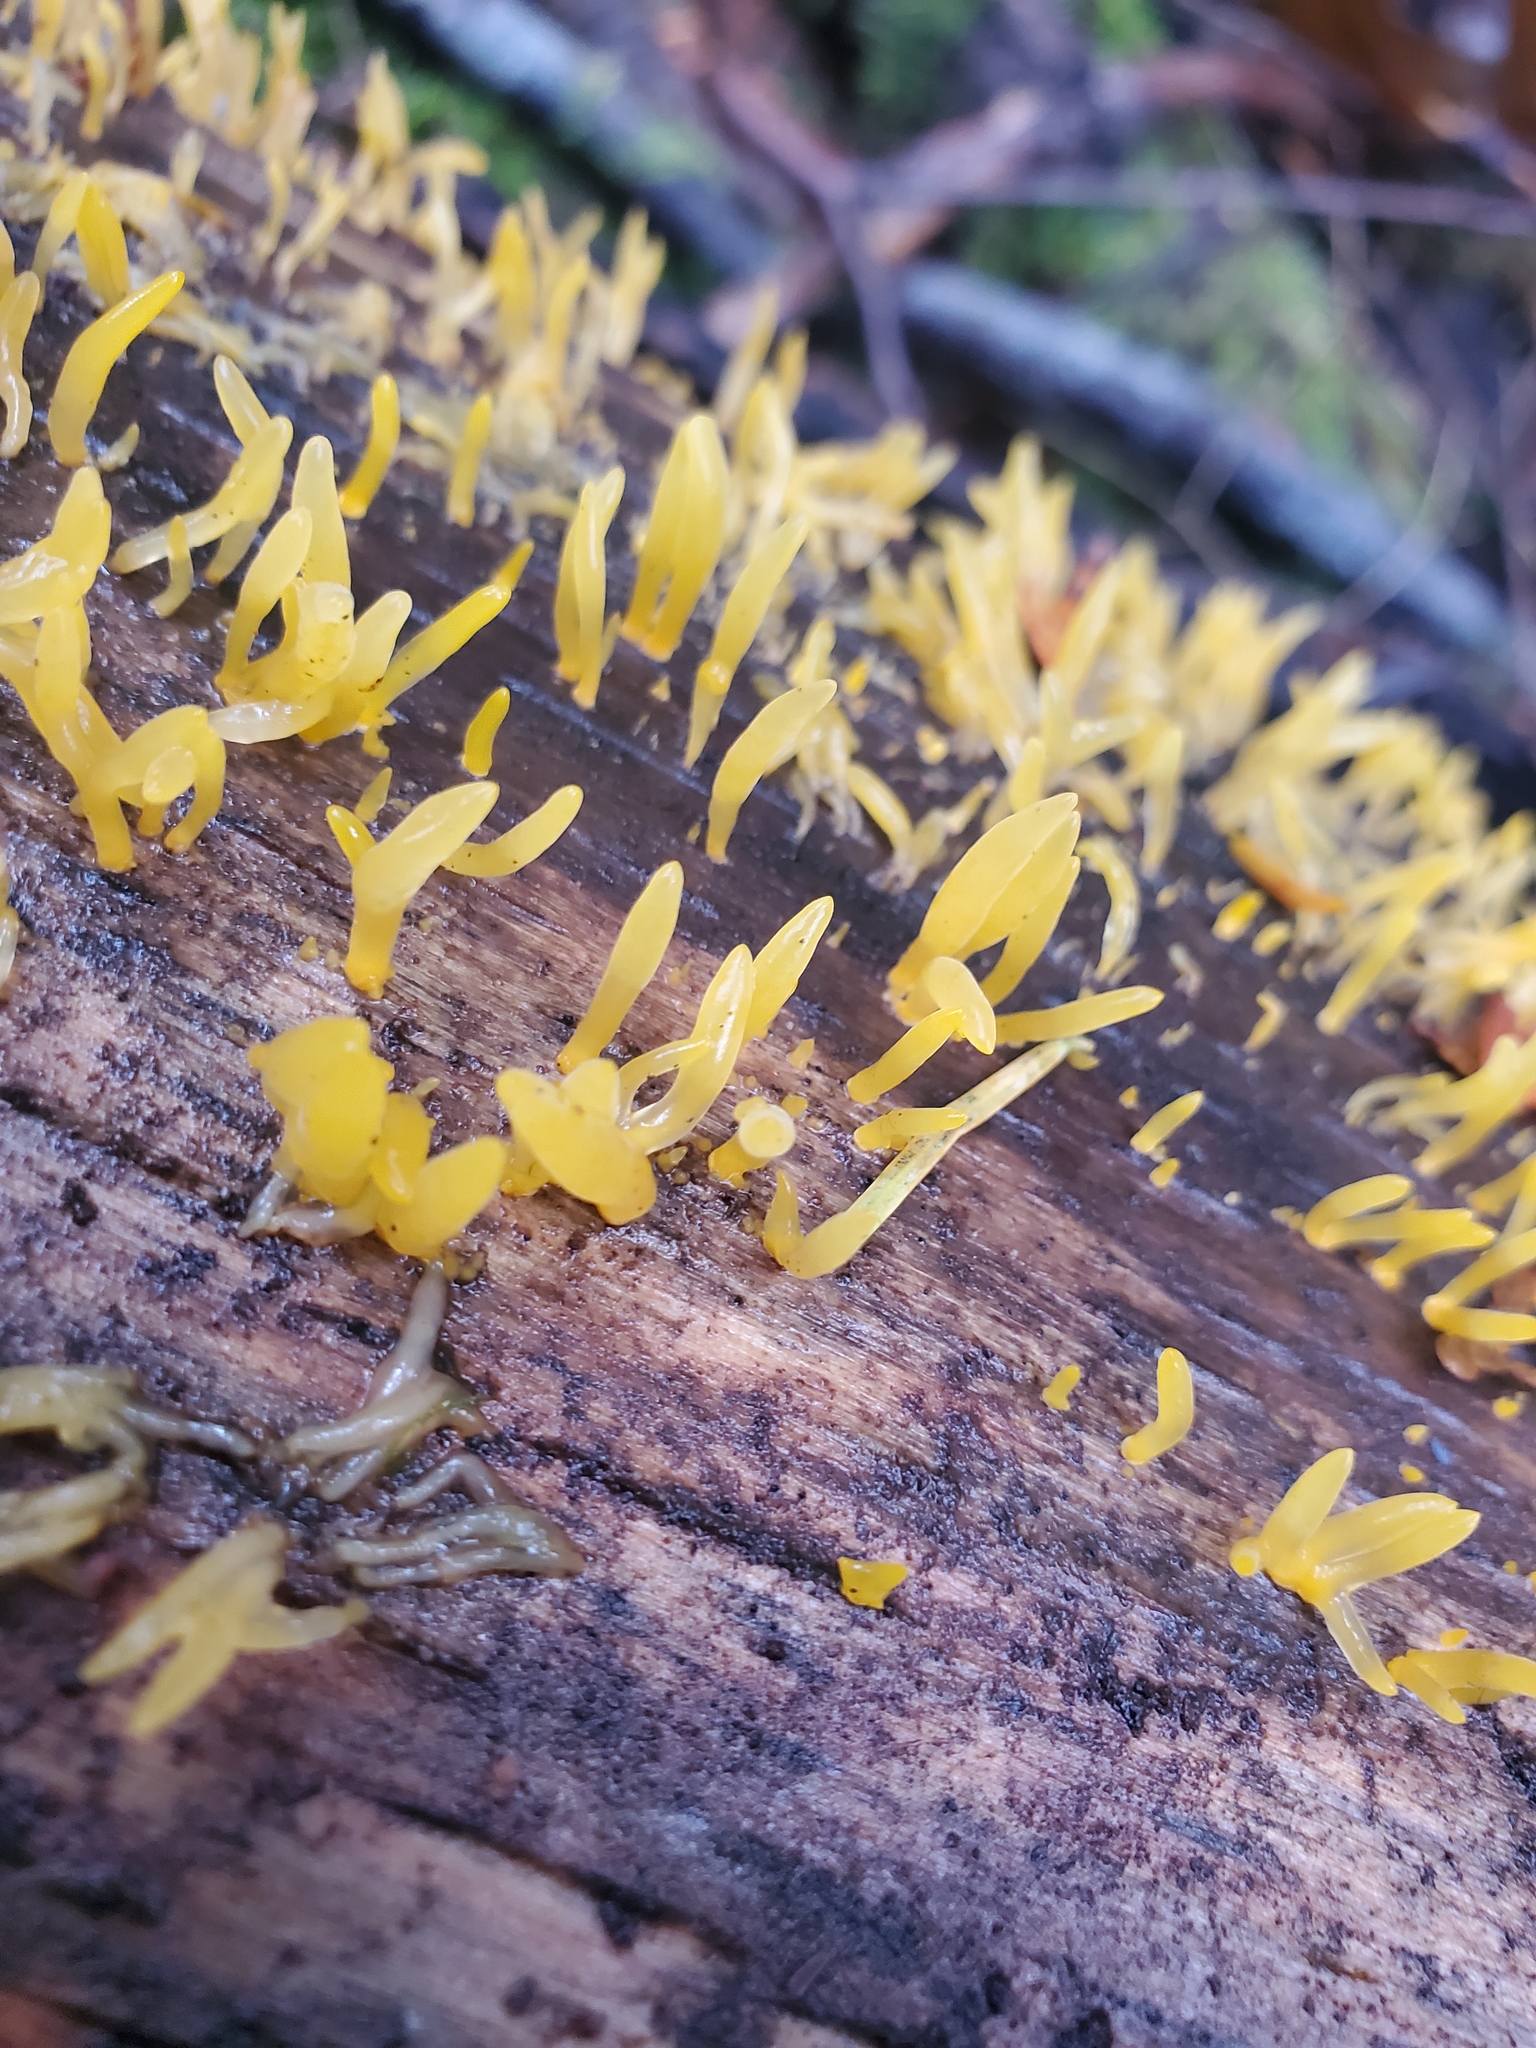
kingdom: Fungi
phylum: Basidiomycota
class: Dacrymycetes
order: Dacrymycetales
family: Dacrymycetaceae
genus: Calocera
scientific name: Calocera cornea
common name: Small stagshorn
